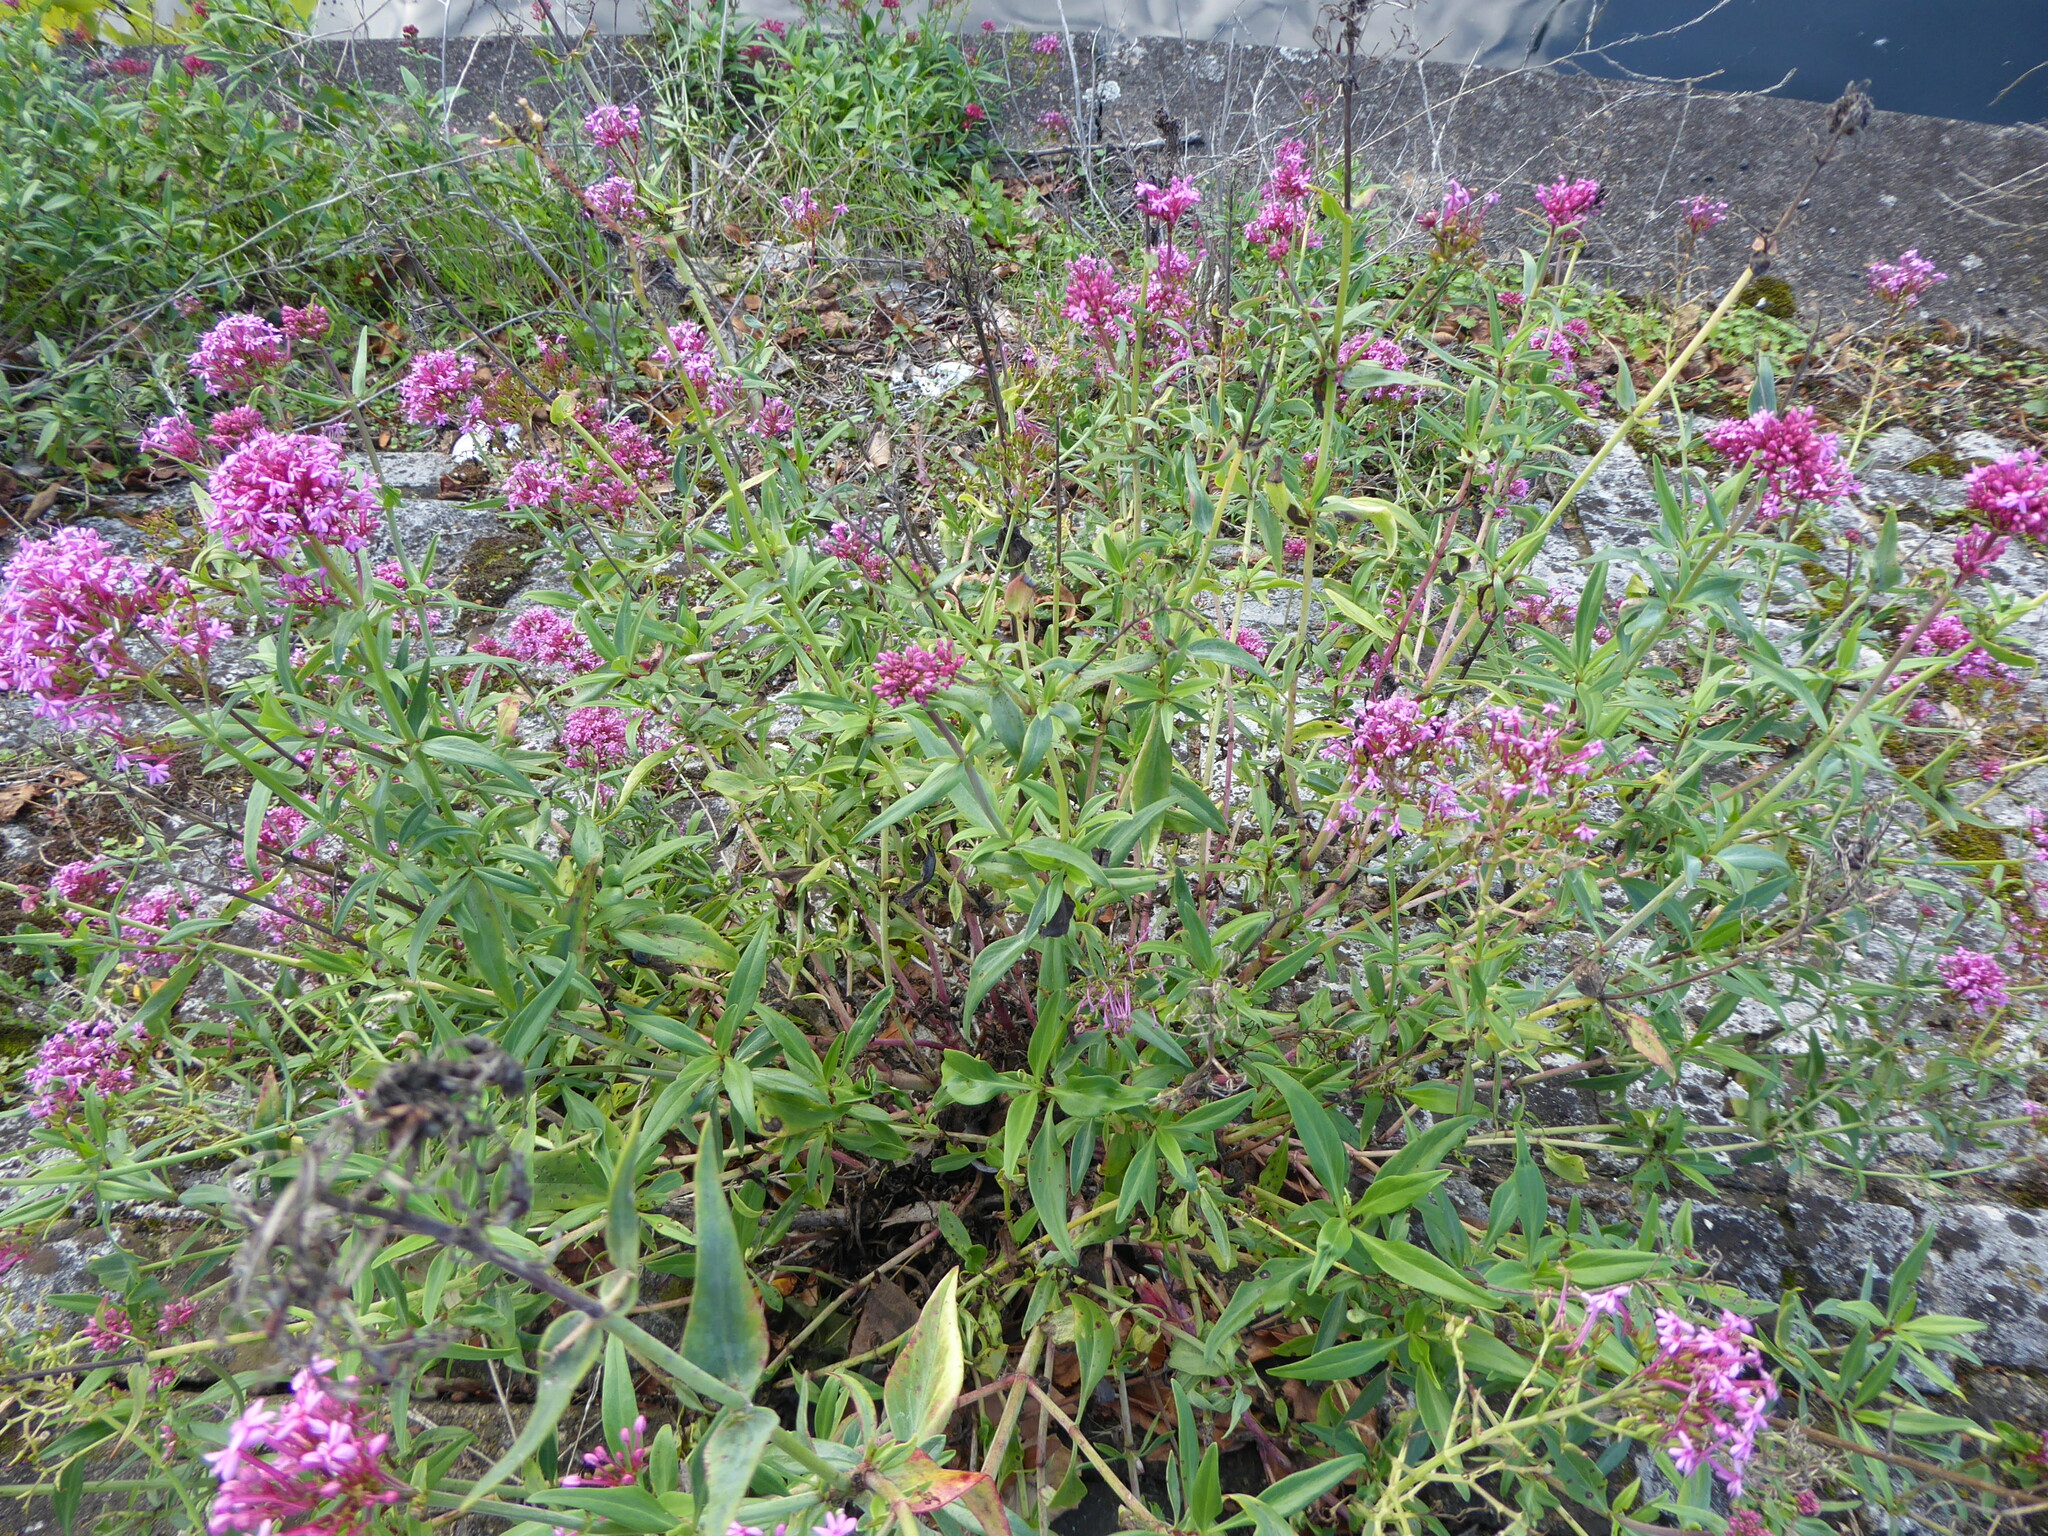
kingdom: Plantae
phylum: Tracheophyta
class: Magnoliopsida
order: Dipsacales
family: Caprifoliaceae
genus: Centranthus
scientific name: Centranthus ruber
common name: Red valerian
